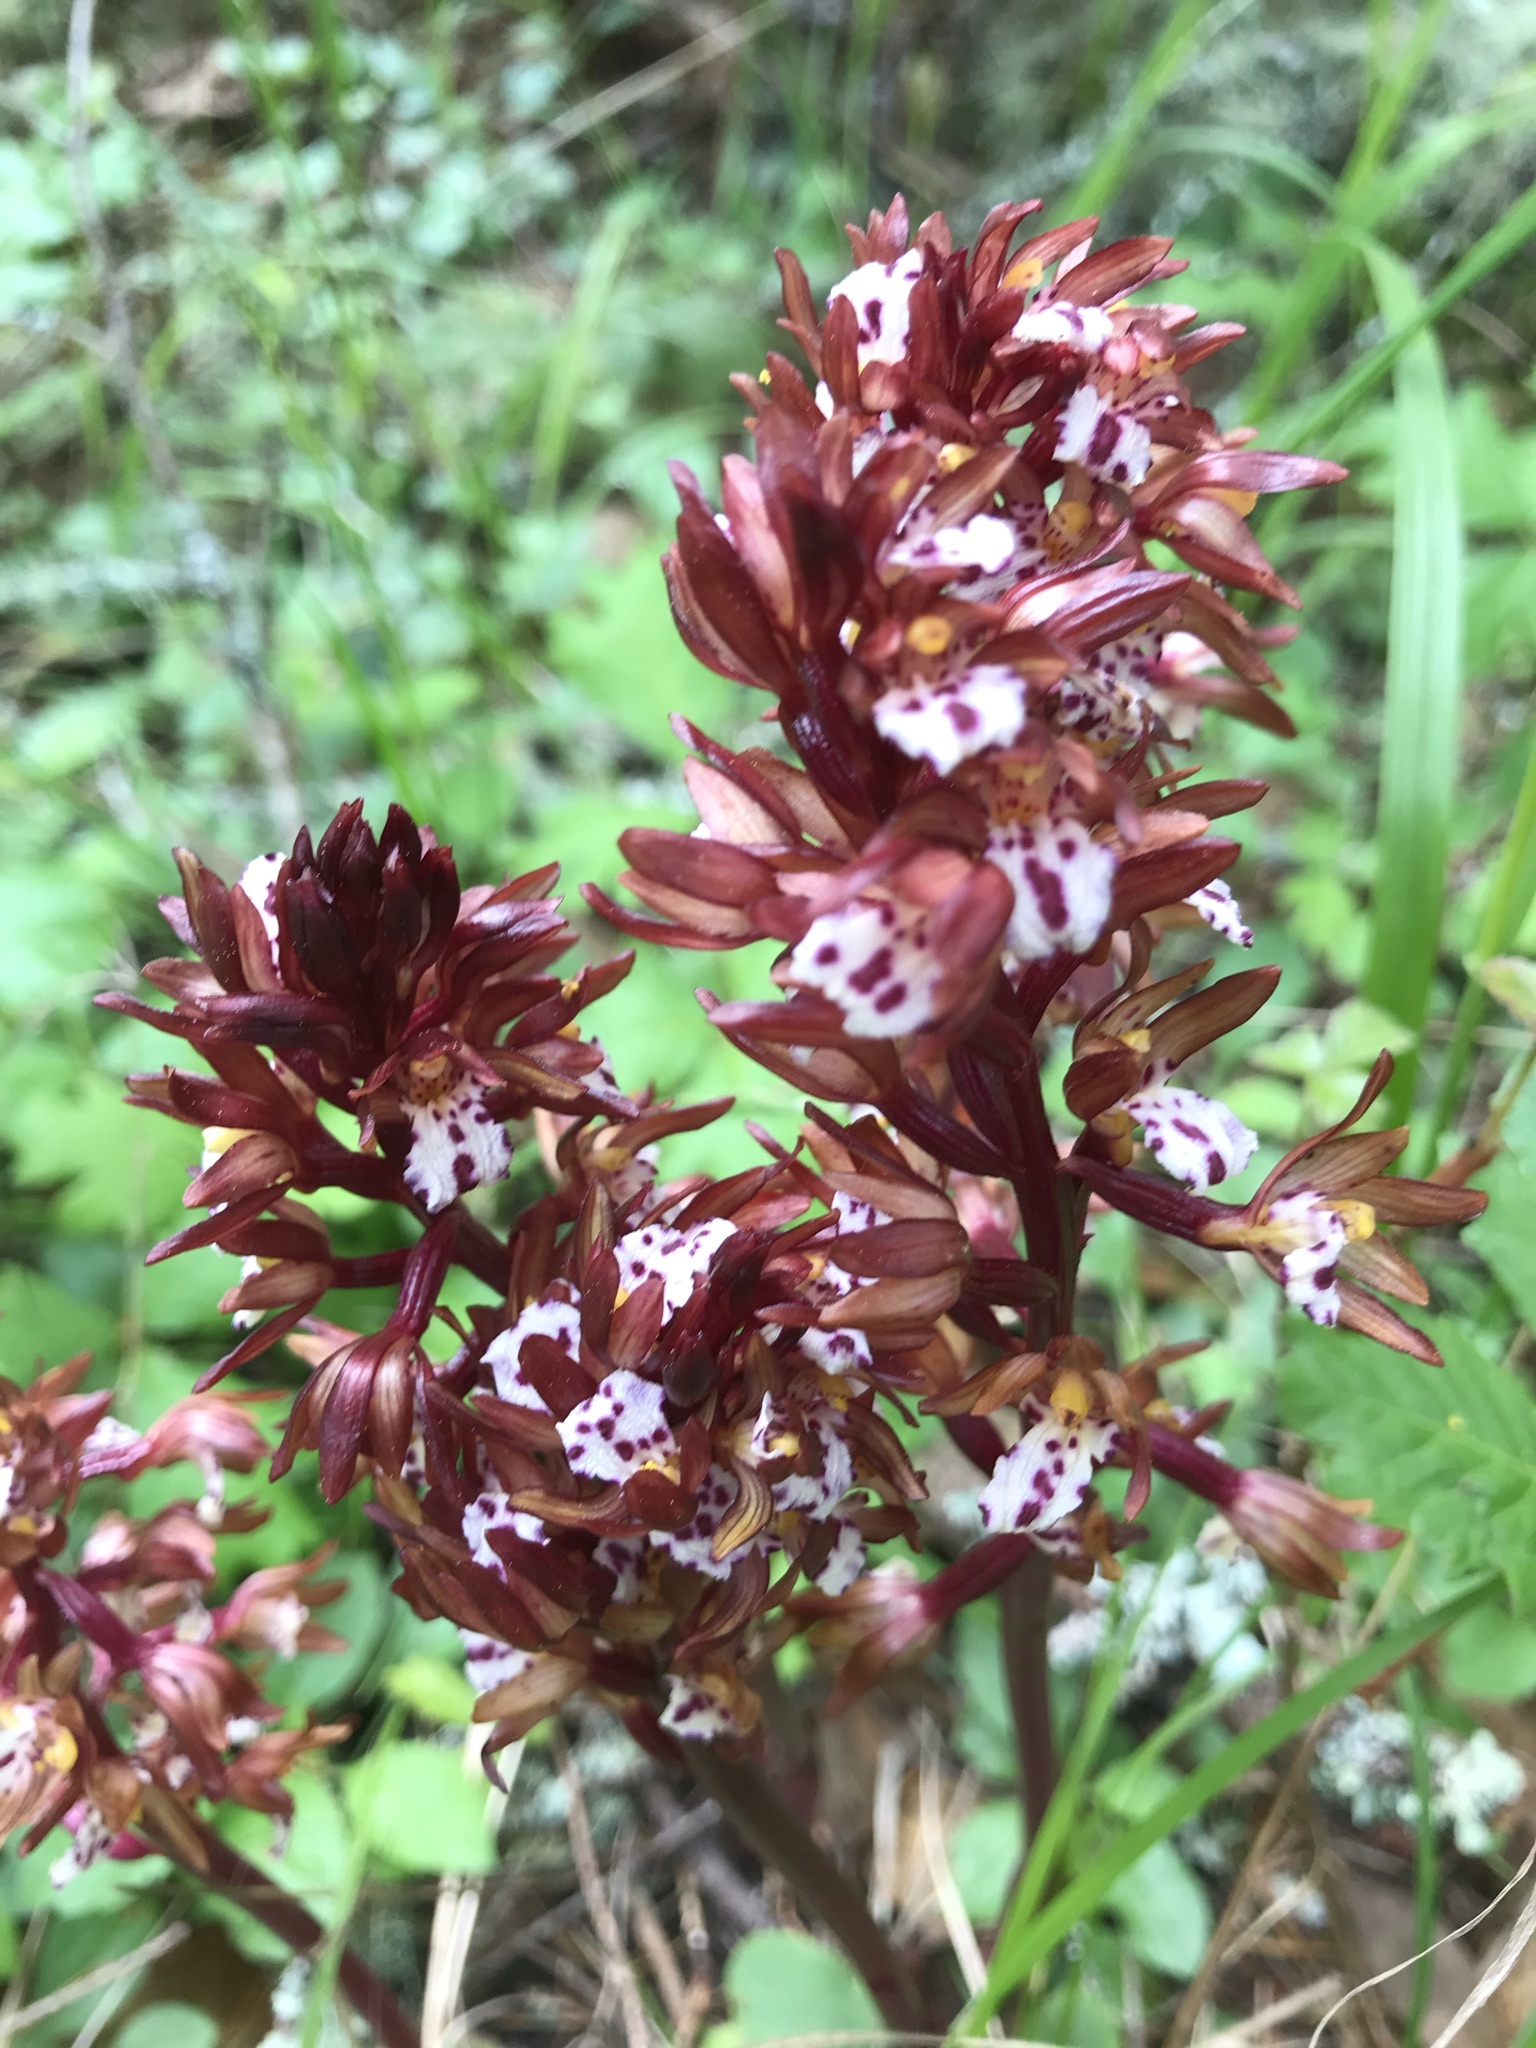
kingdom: Plantae
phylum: Tracheophyta
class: Liliopsida
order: Asparagales
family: Orchidaceae
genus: Corallorhiza
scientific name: Corallorhiza maculata
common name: Spotted coralroot
